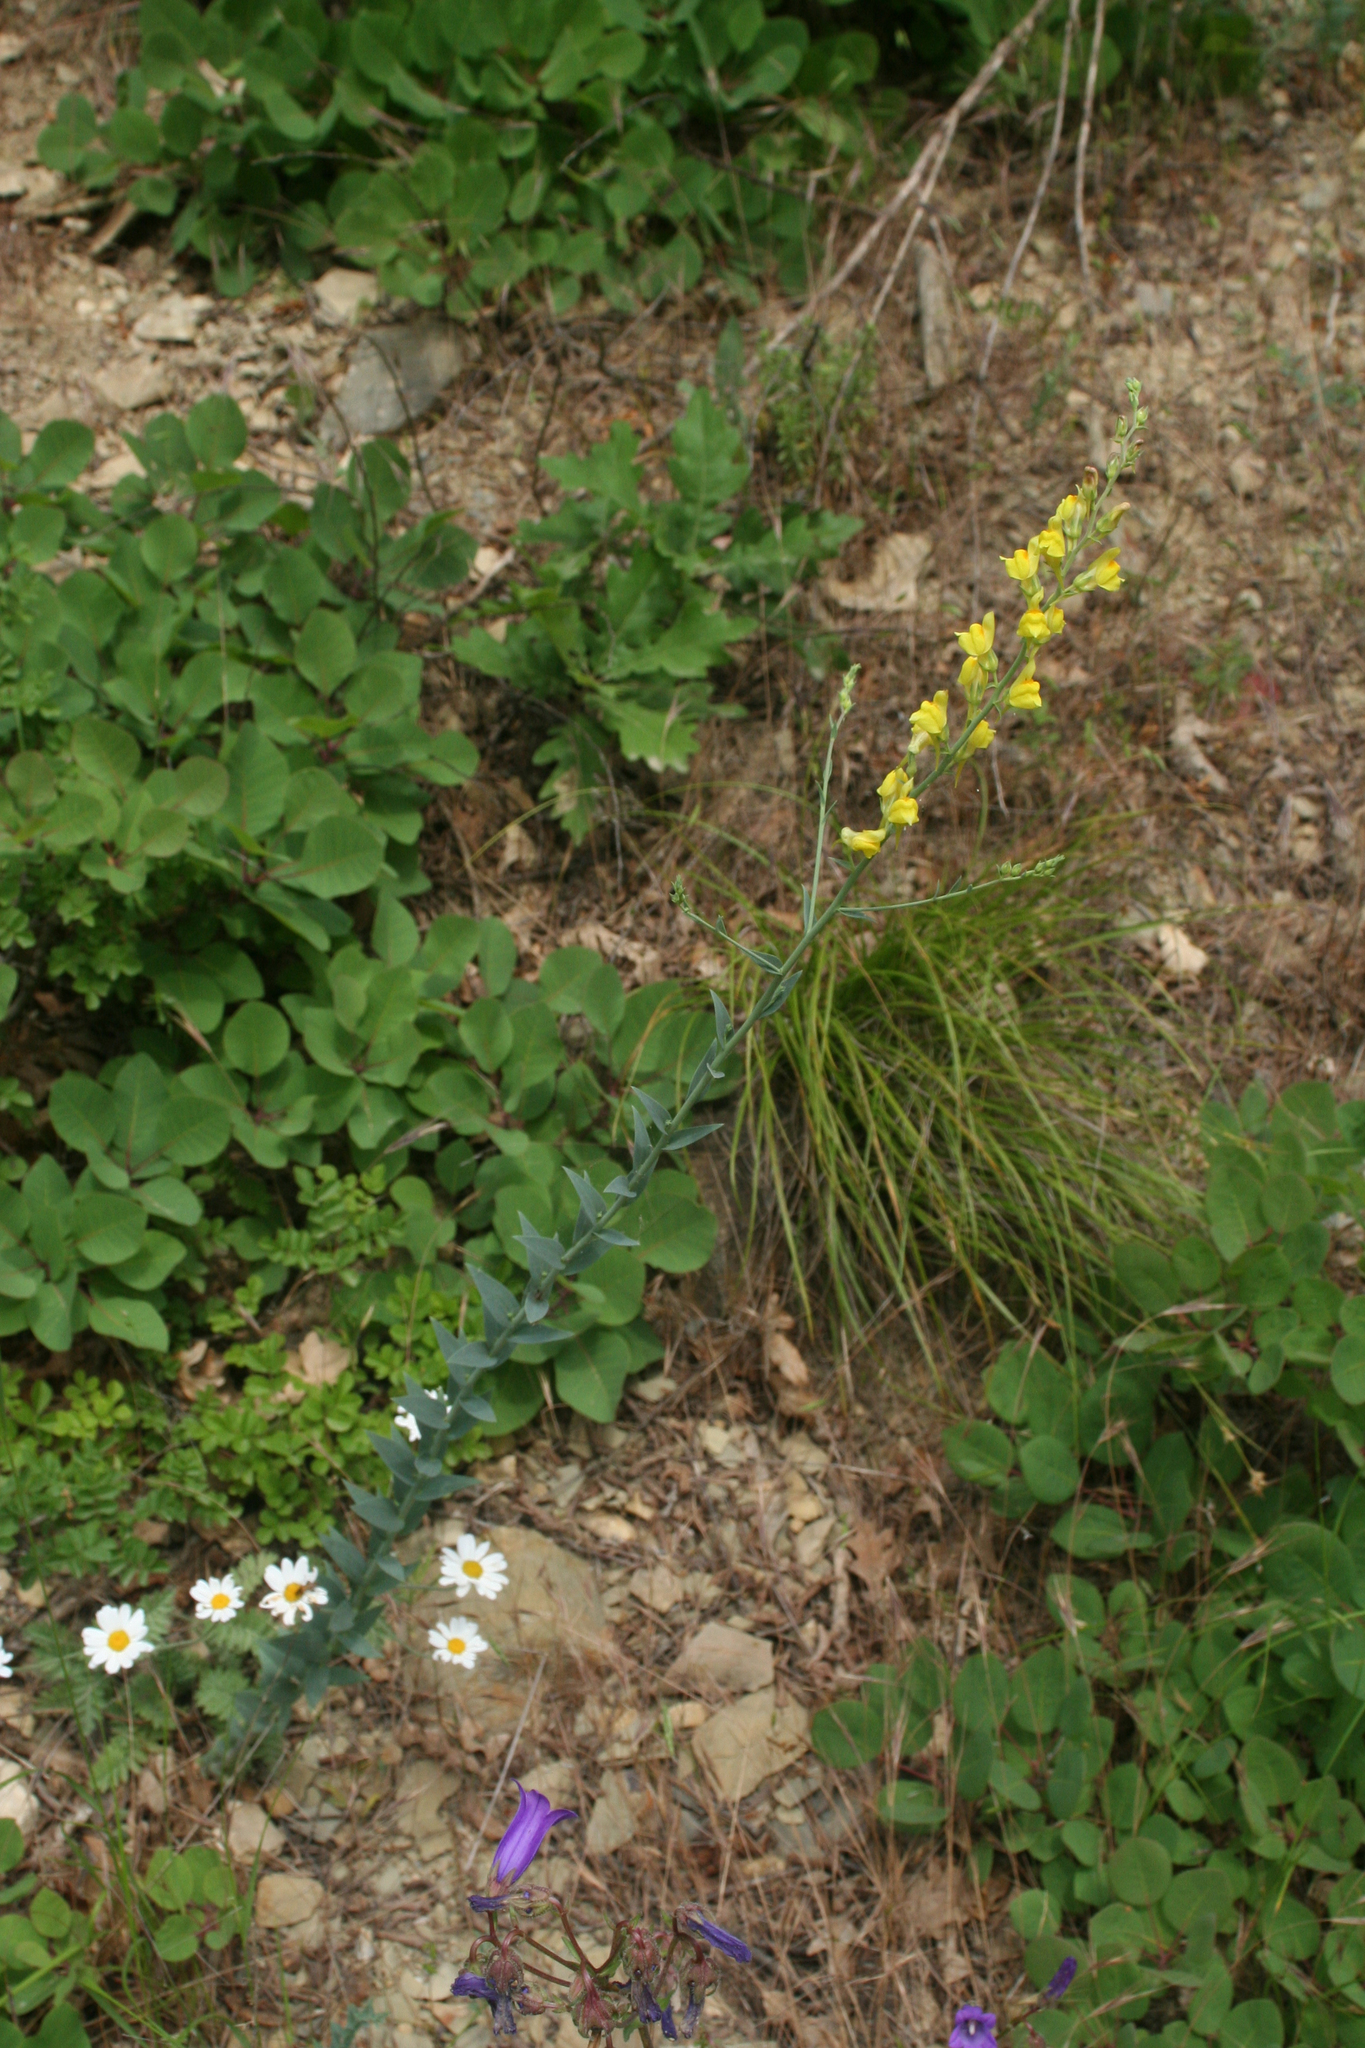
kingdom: Plantae
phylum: Tracheophyta
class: Magnoliopsida
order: Lamiales
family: Plantaginaceae
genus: Linaria
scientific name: Linaria genistifolia
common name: Broomleaf toadflax
